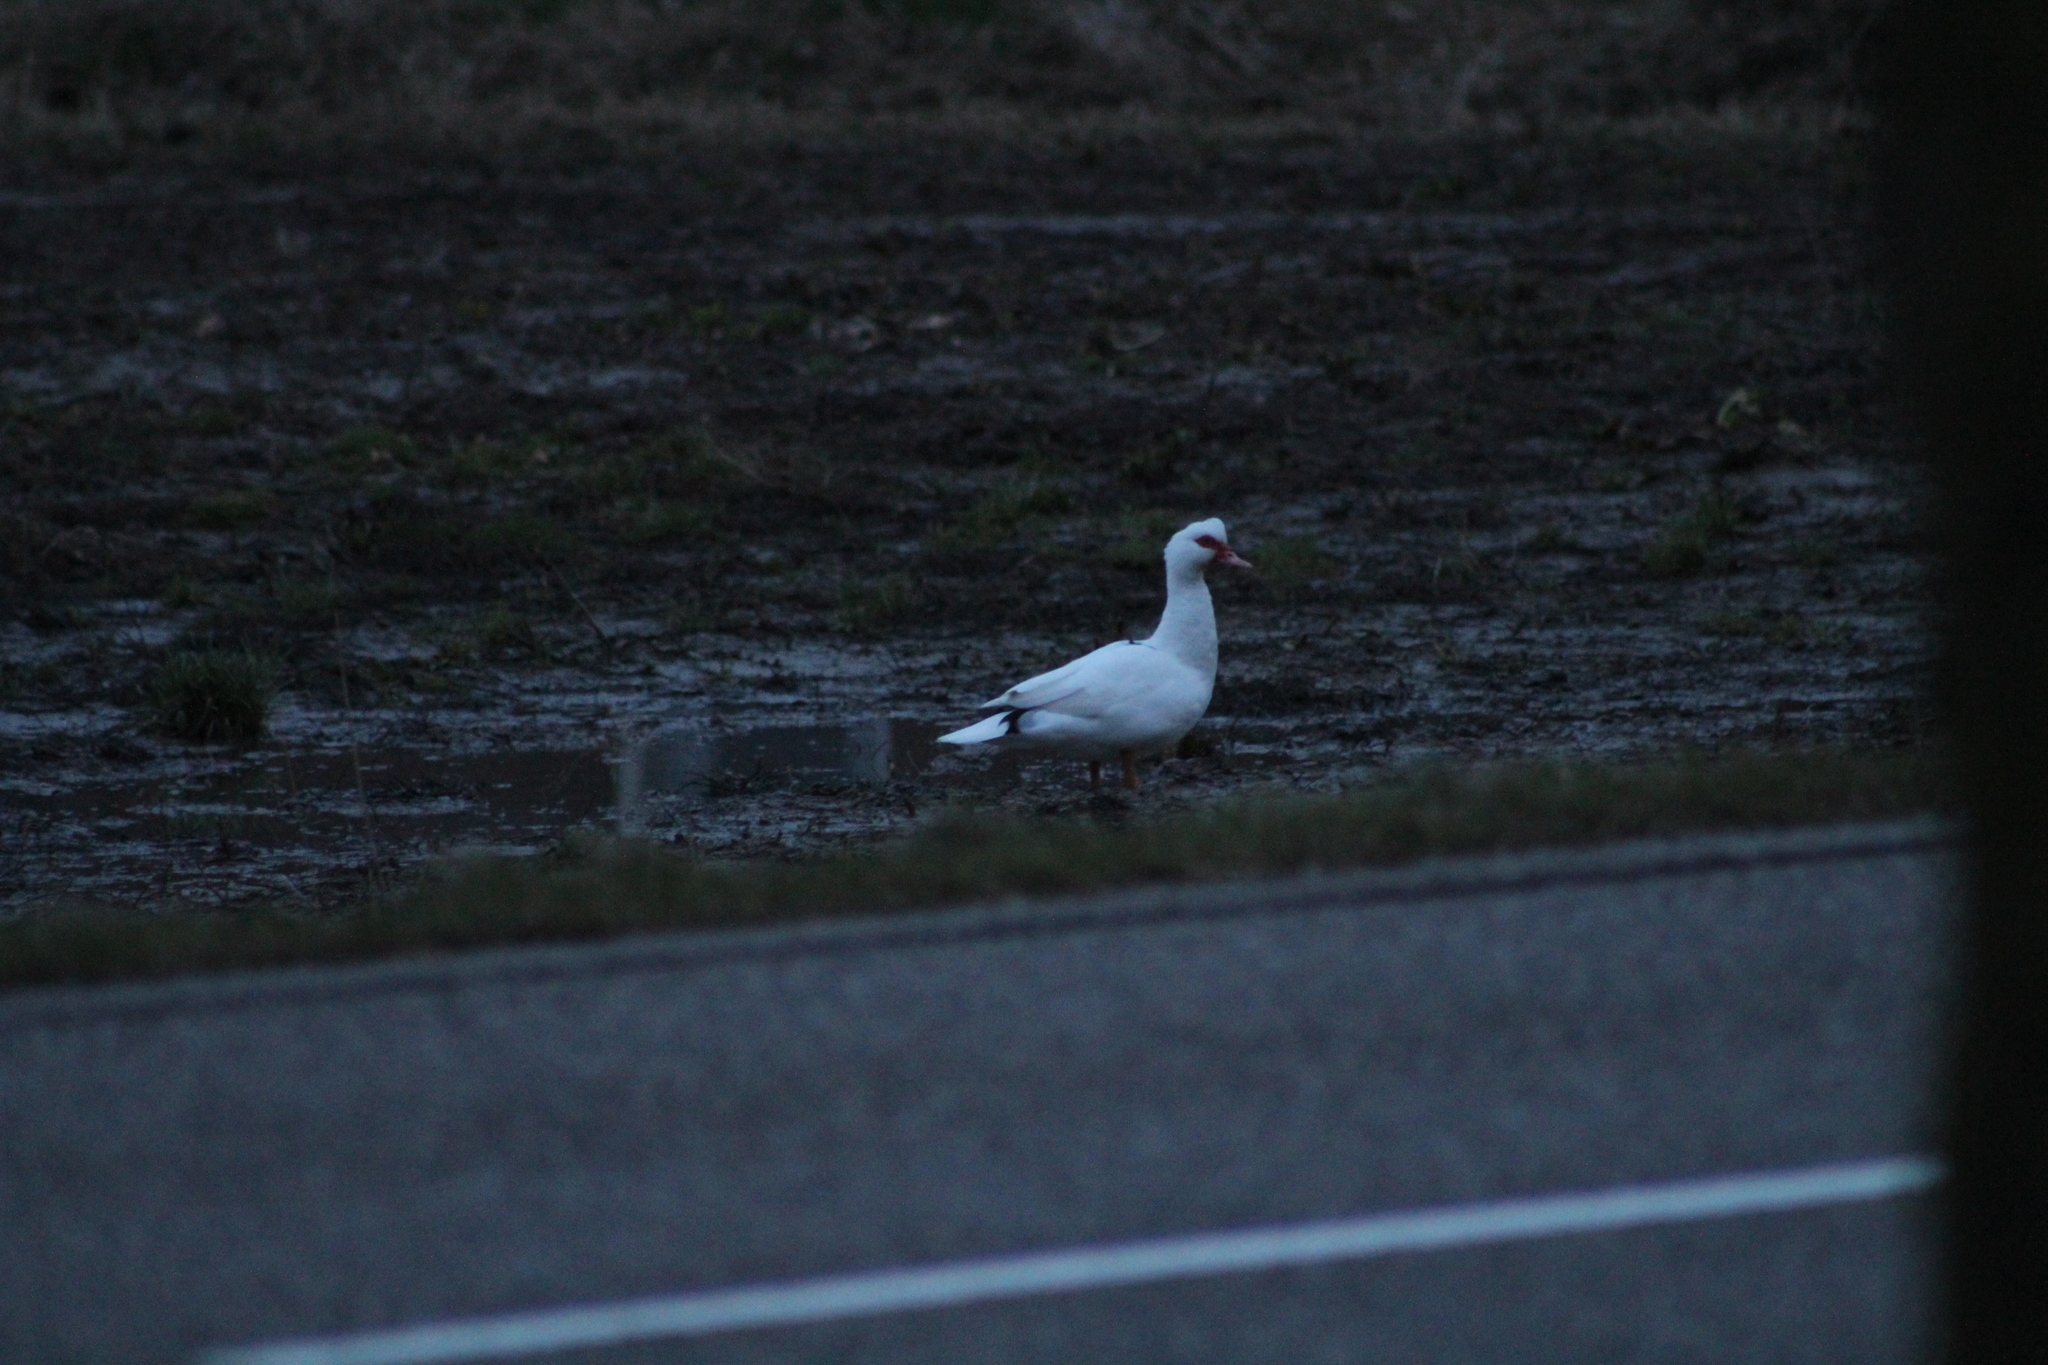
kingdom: Animalia
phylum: Chordata
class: Aves
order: Anseriformes
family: Anatidae
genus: Cairina
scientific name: Cairina moschata
